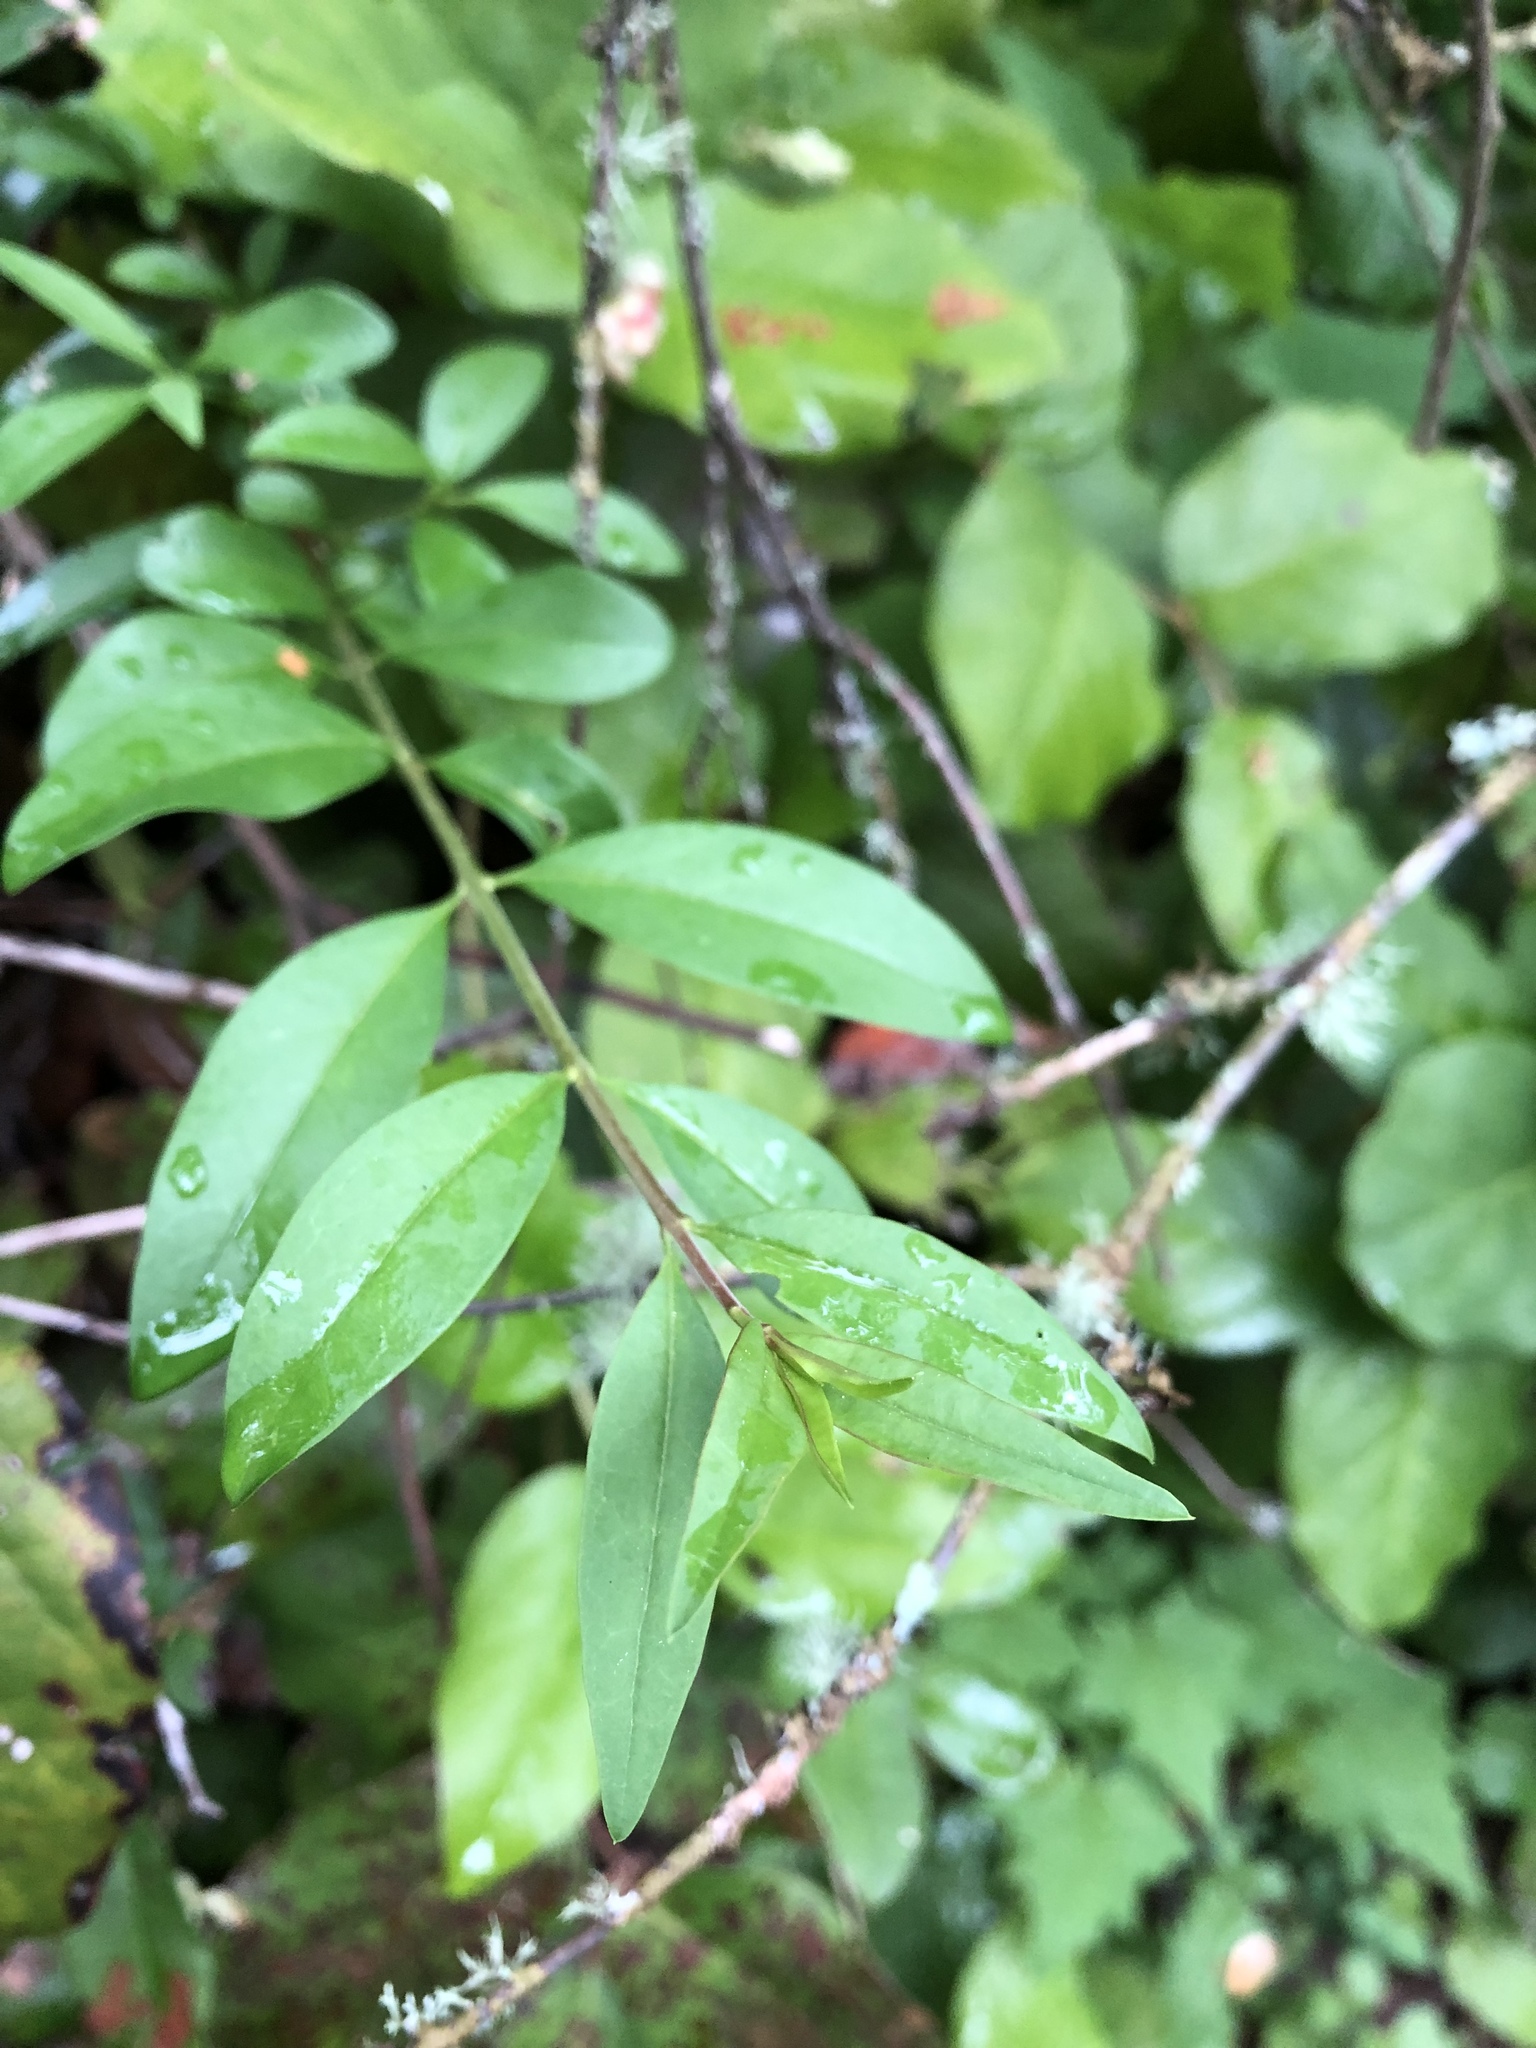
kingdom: Plantae
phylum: Tracheophyta
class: Magnoliopsida
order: Lamiales
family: Oleaceae
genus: Ligustrum
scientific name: Ligustrum vulgare
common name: Wild privet
